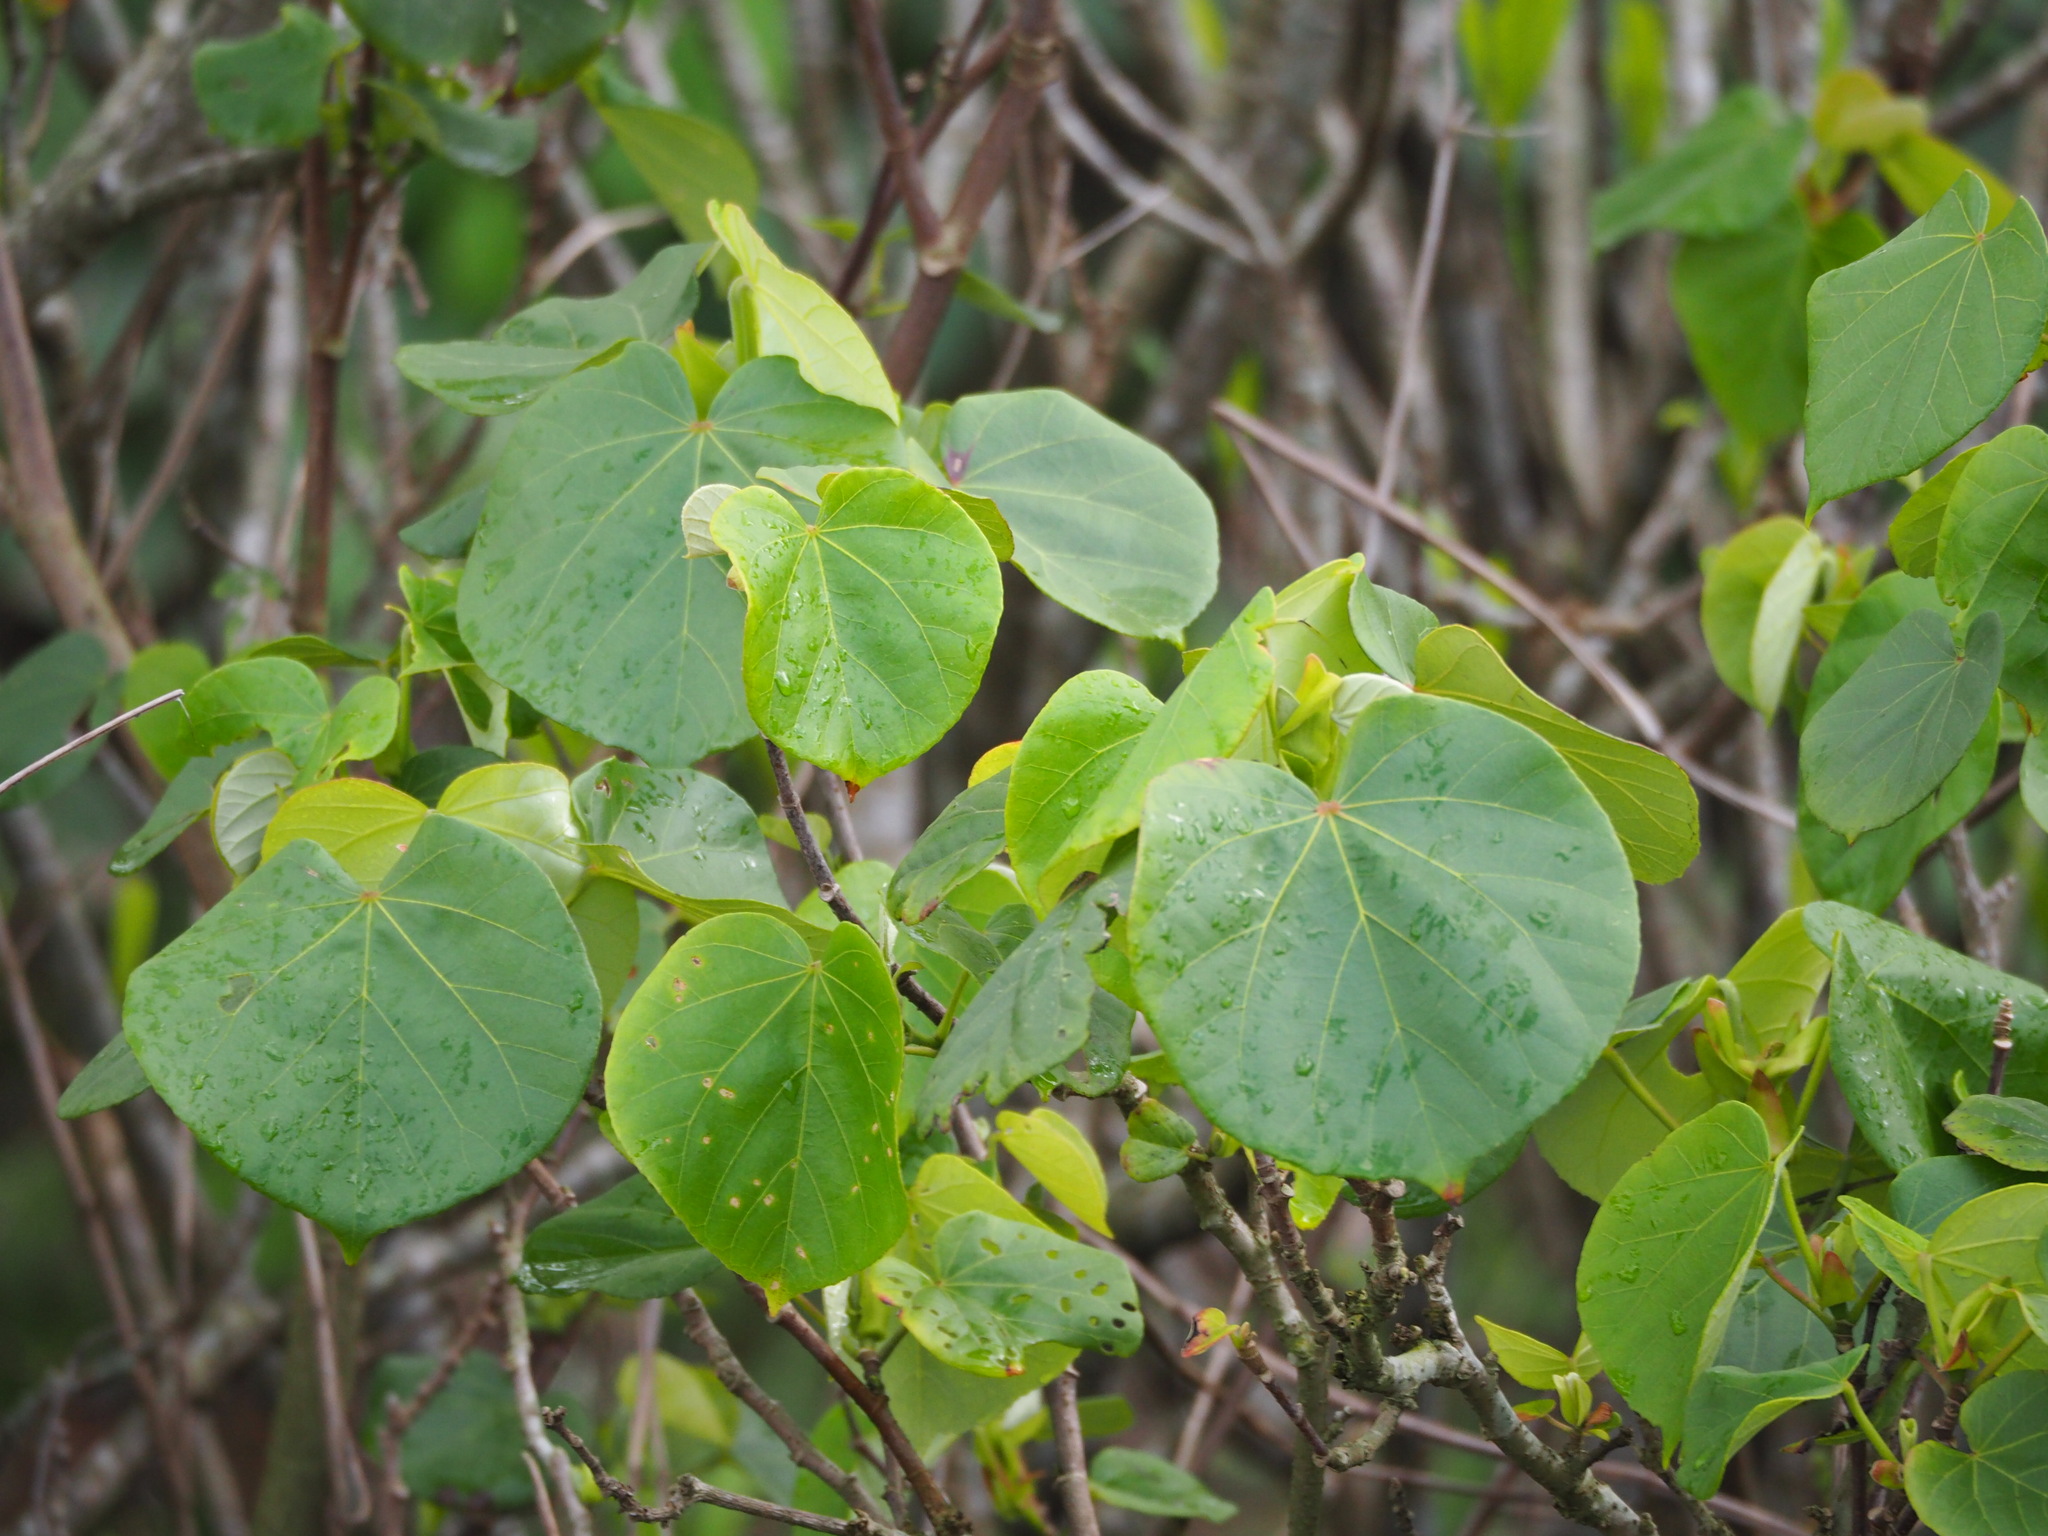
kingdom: Plantae
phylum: Tracheophyta
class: Magnoliopsida
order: Malvales
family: Malvaceae
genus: Talipariti
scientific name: Talipariti tiliaceum
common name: Sea hibiscus
